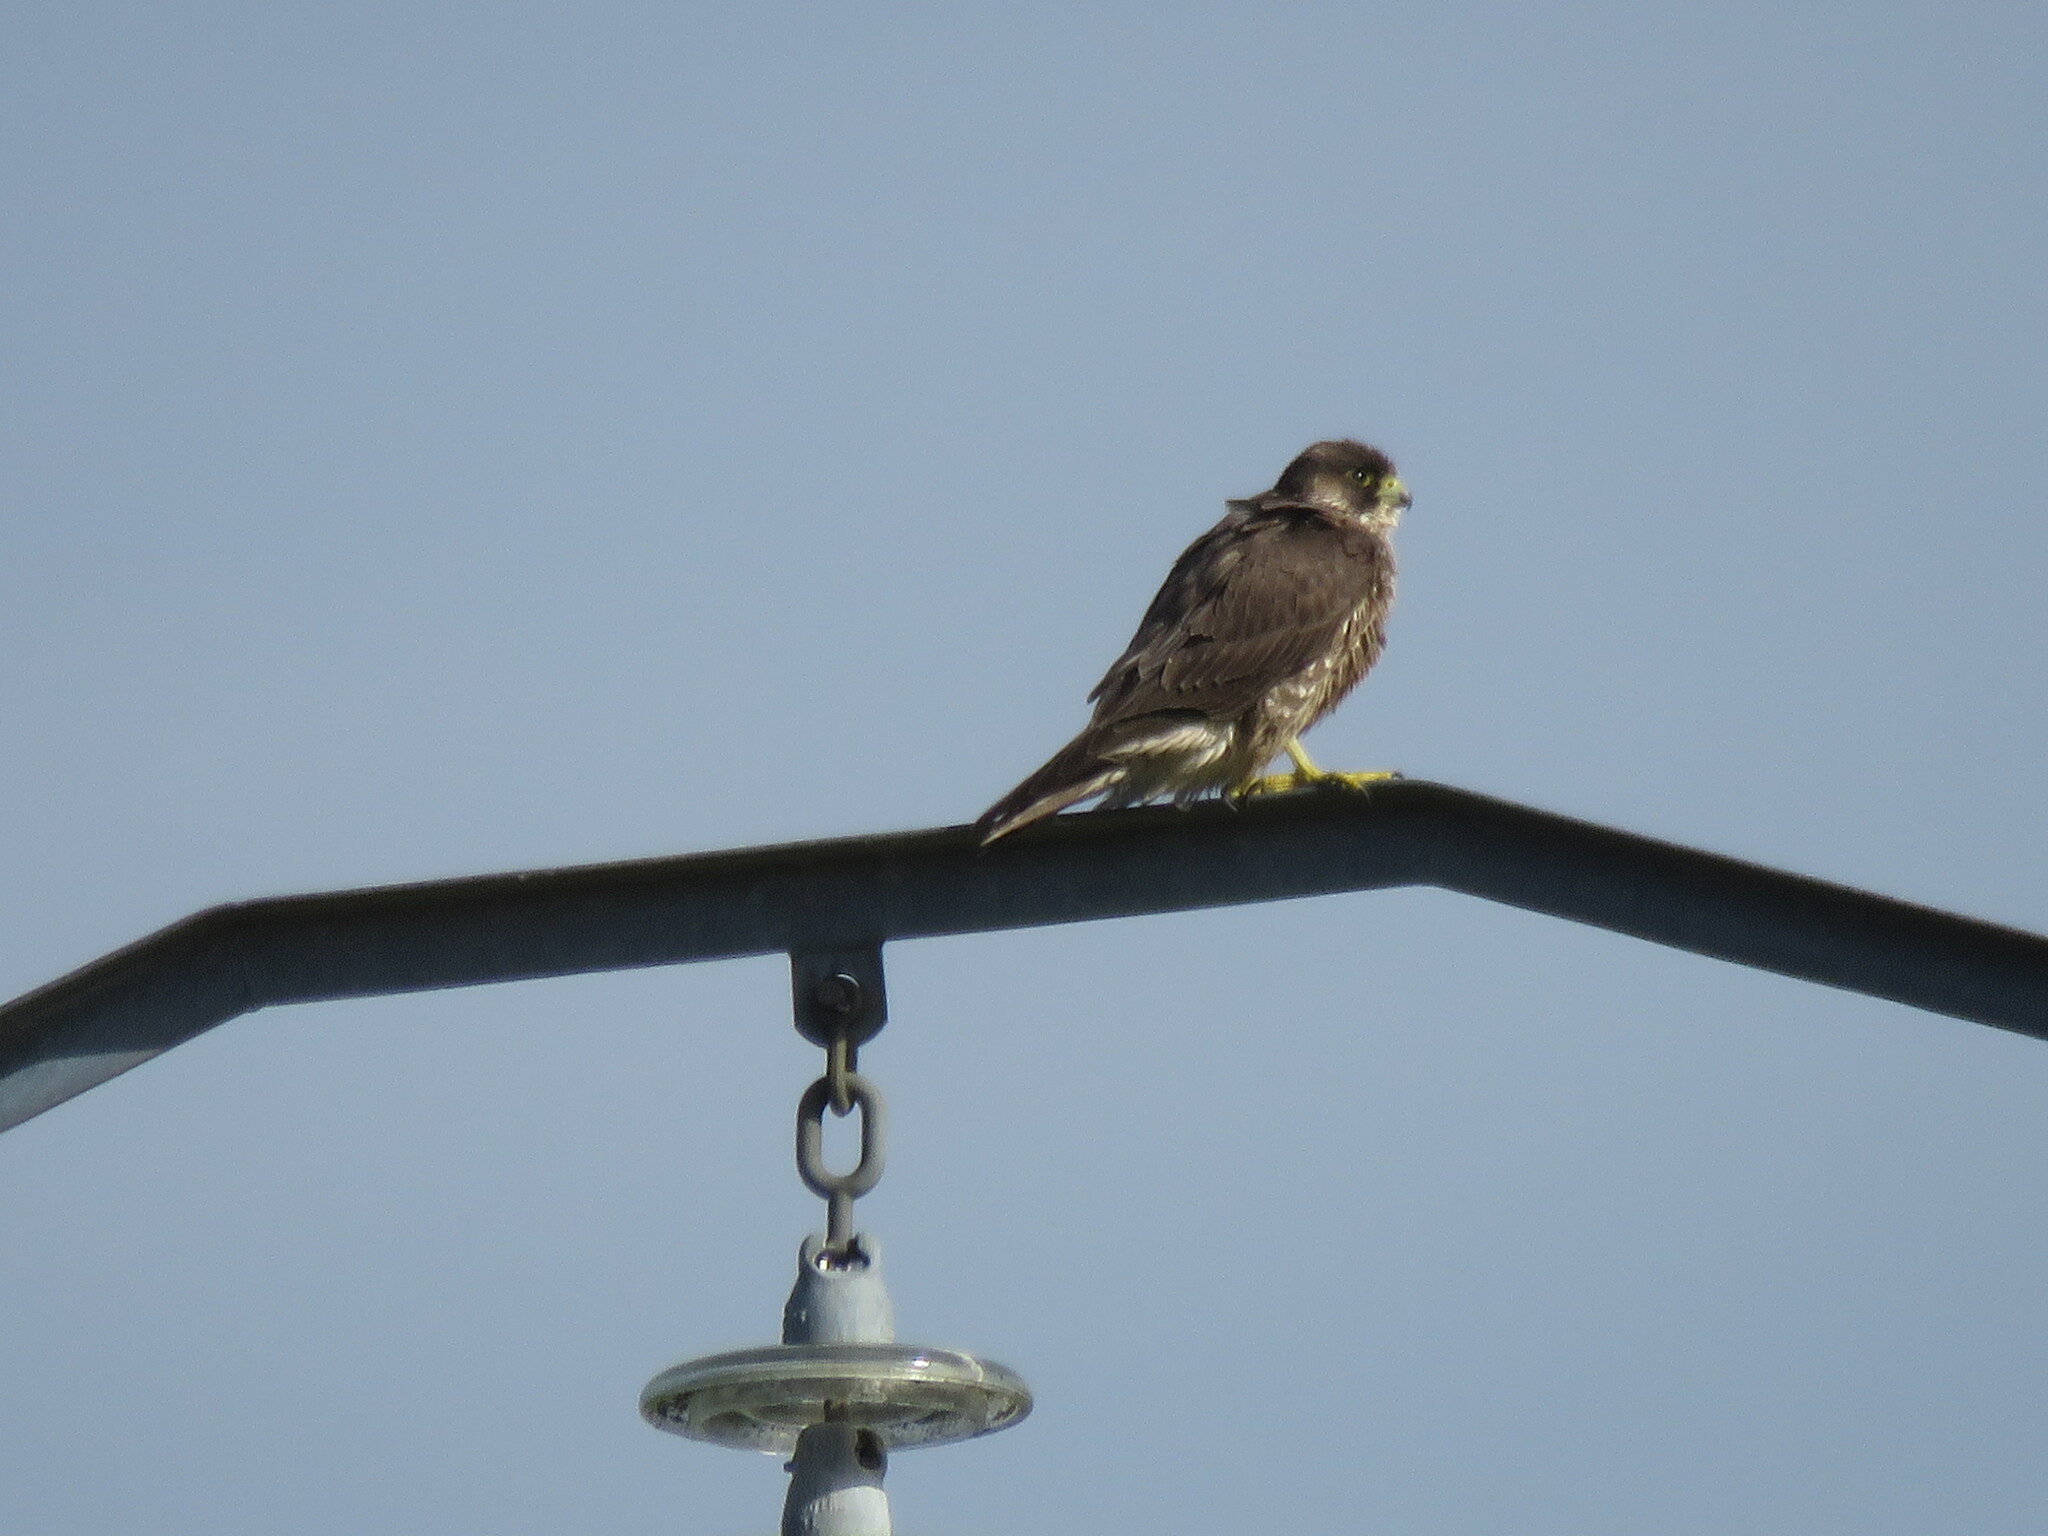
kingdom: Animalia
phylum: Chordata
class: Aves
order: Falconiformes
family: Falconidae
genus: Falco
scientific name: Falco peregrinus
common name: Peregrine falcon
